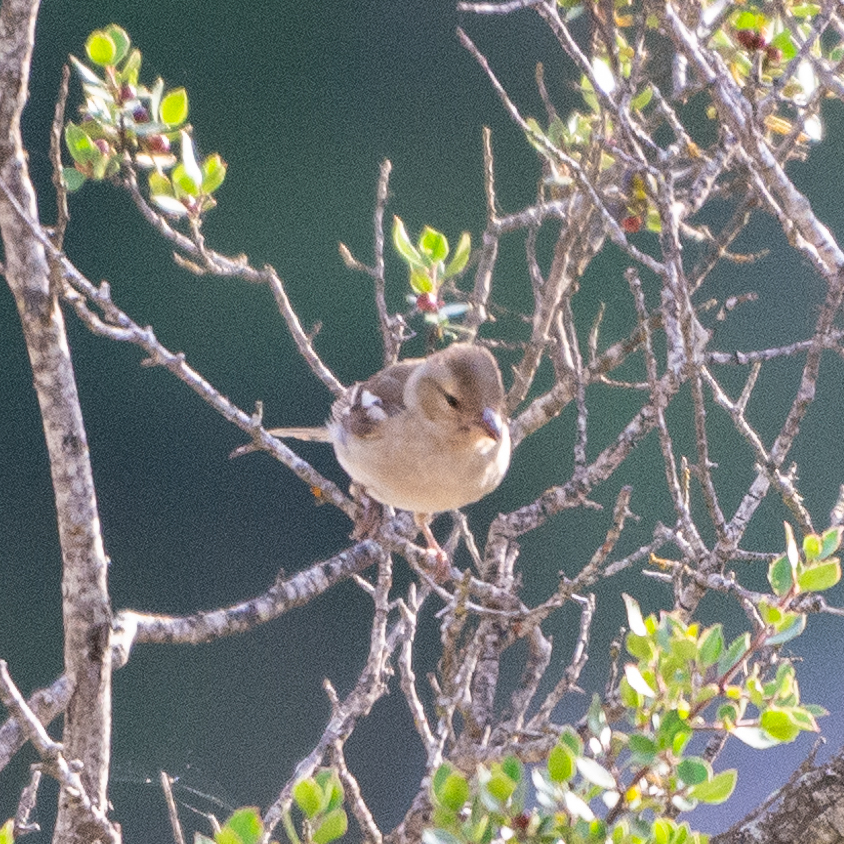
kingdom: Animalia
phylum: Chordata
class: Aves
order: Passeriformes
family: Fringillidae
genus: Fringilla
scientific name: Fringilla coelebs
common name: Common chaffinch
